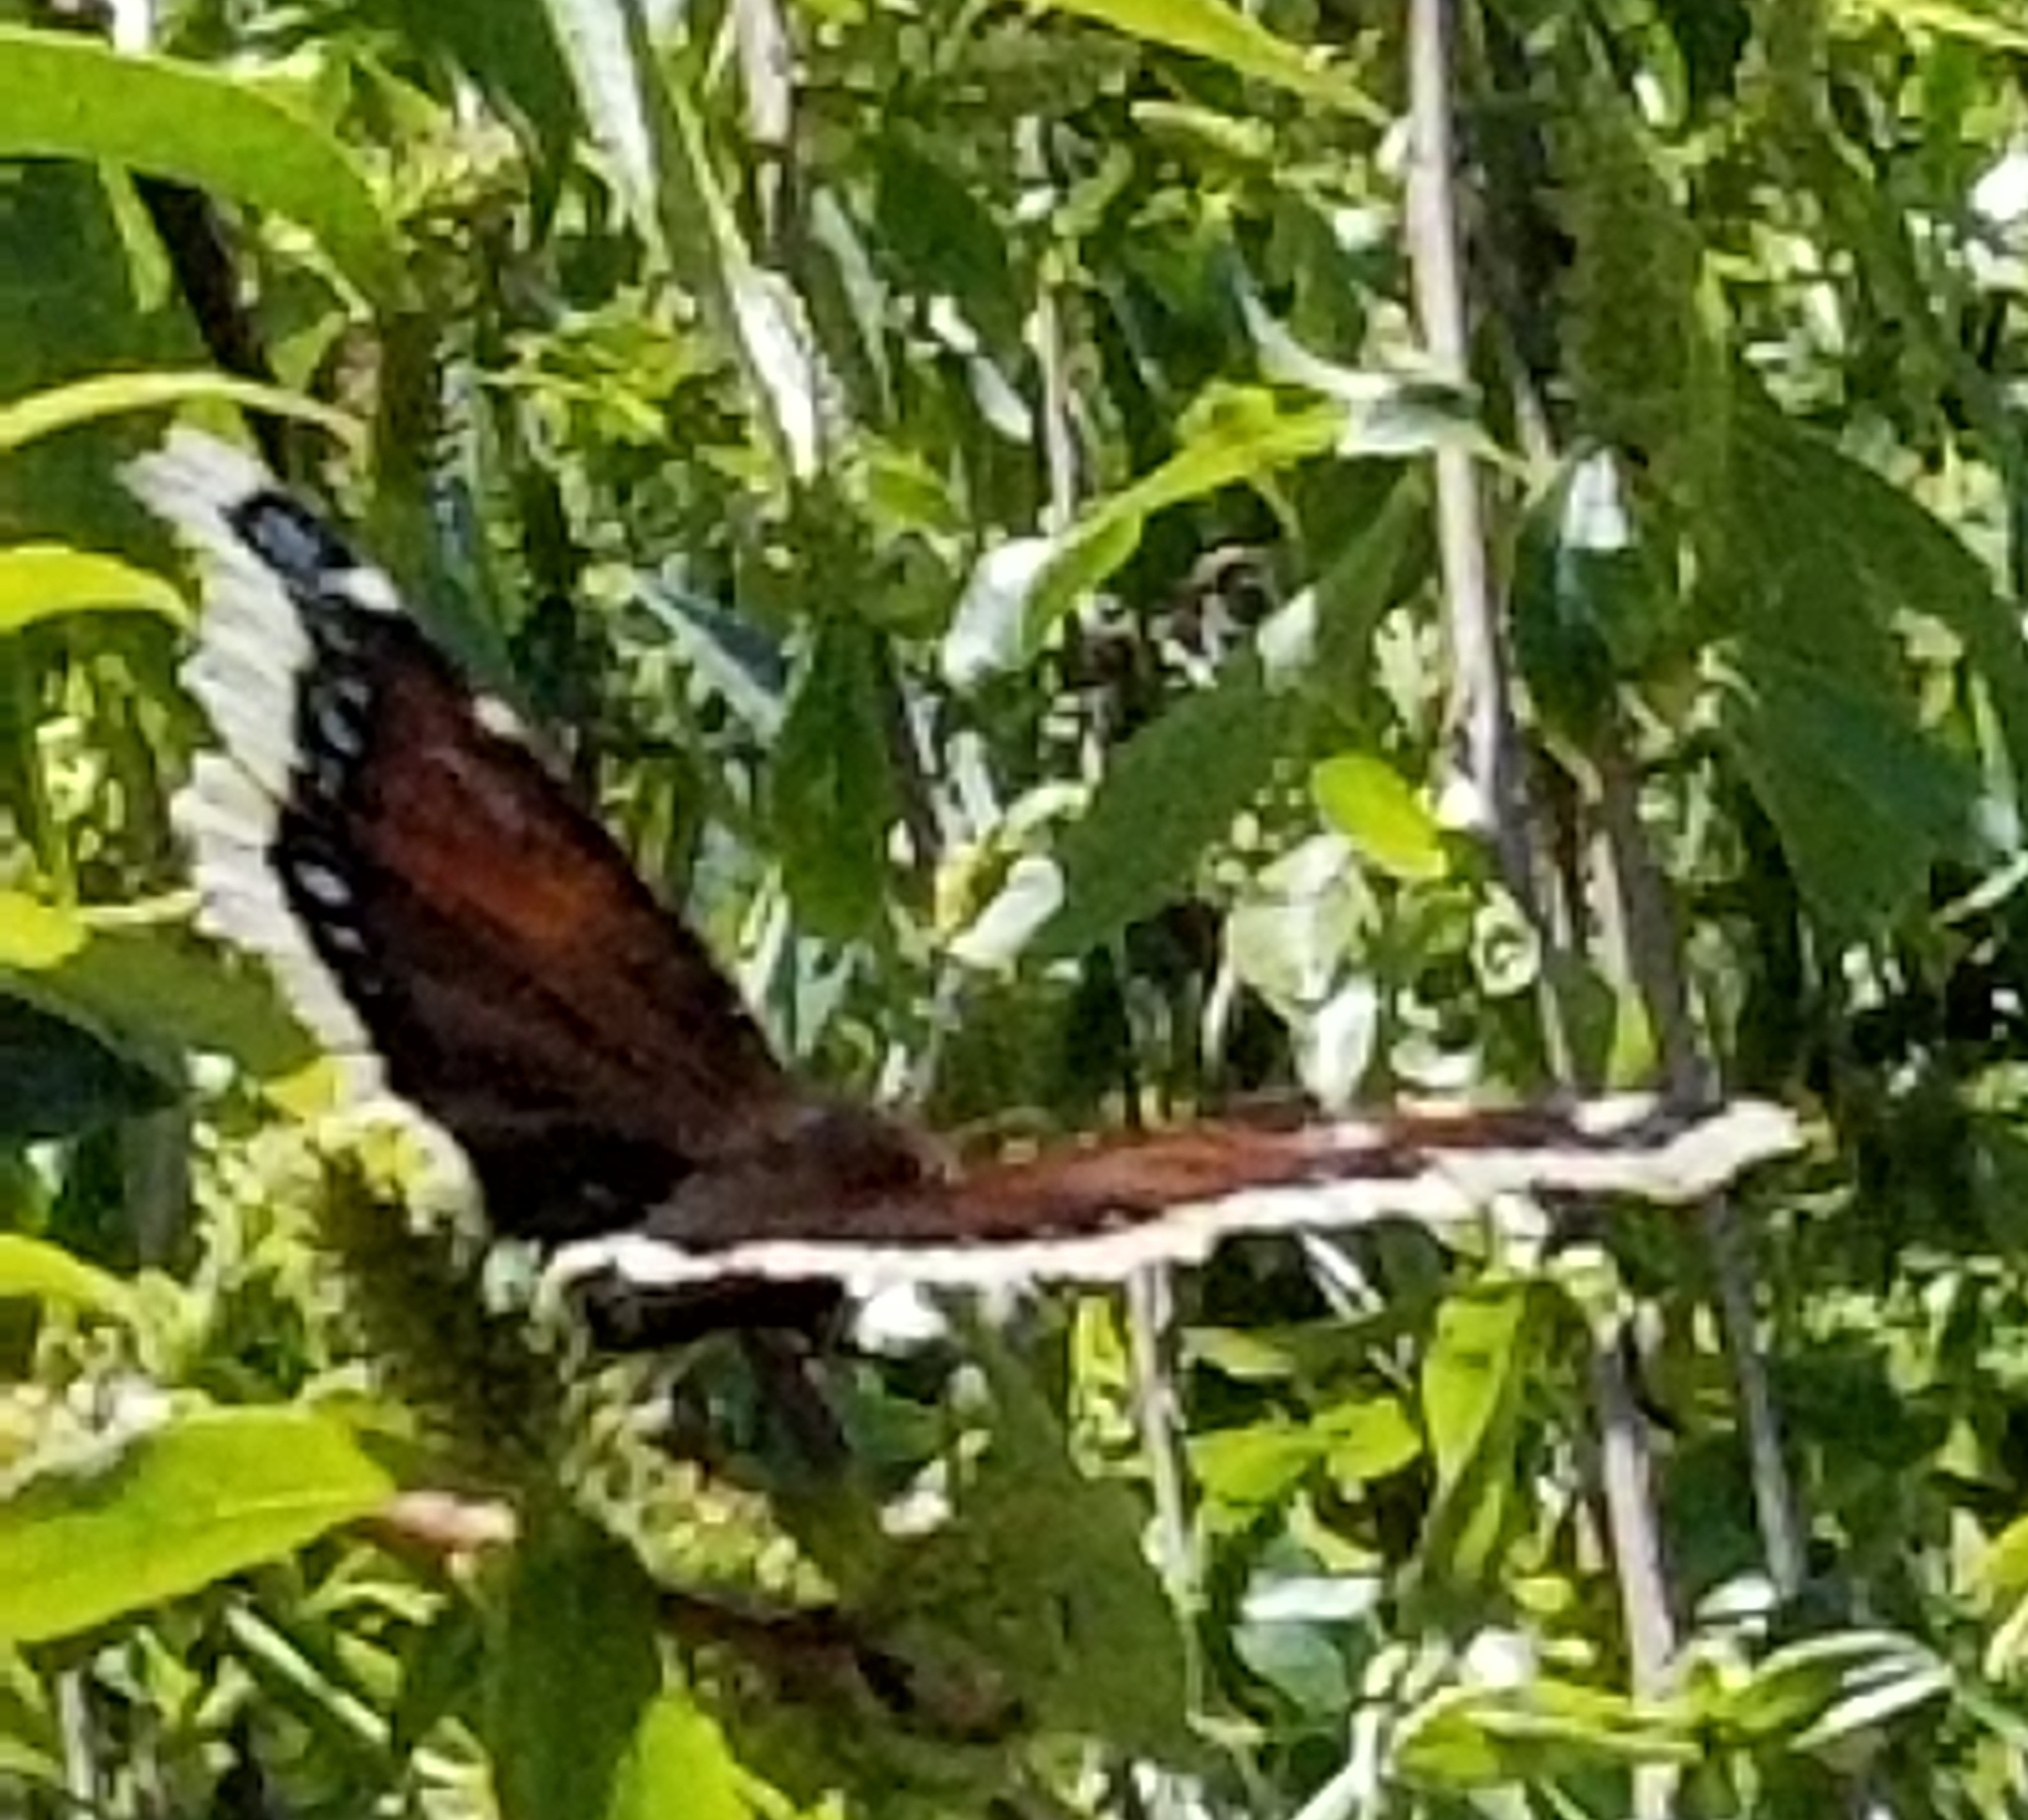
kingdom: Animalia
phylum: Arthropoda
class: Insecta
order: Lepidoptera
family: Nymphalidae
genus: Nymphalis
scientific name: Nymphalis antiopa
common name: Camberwell beauty
